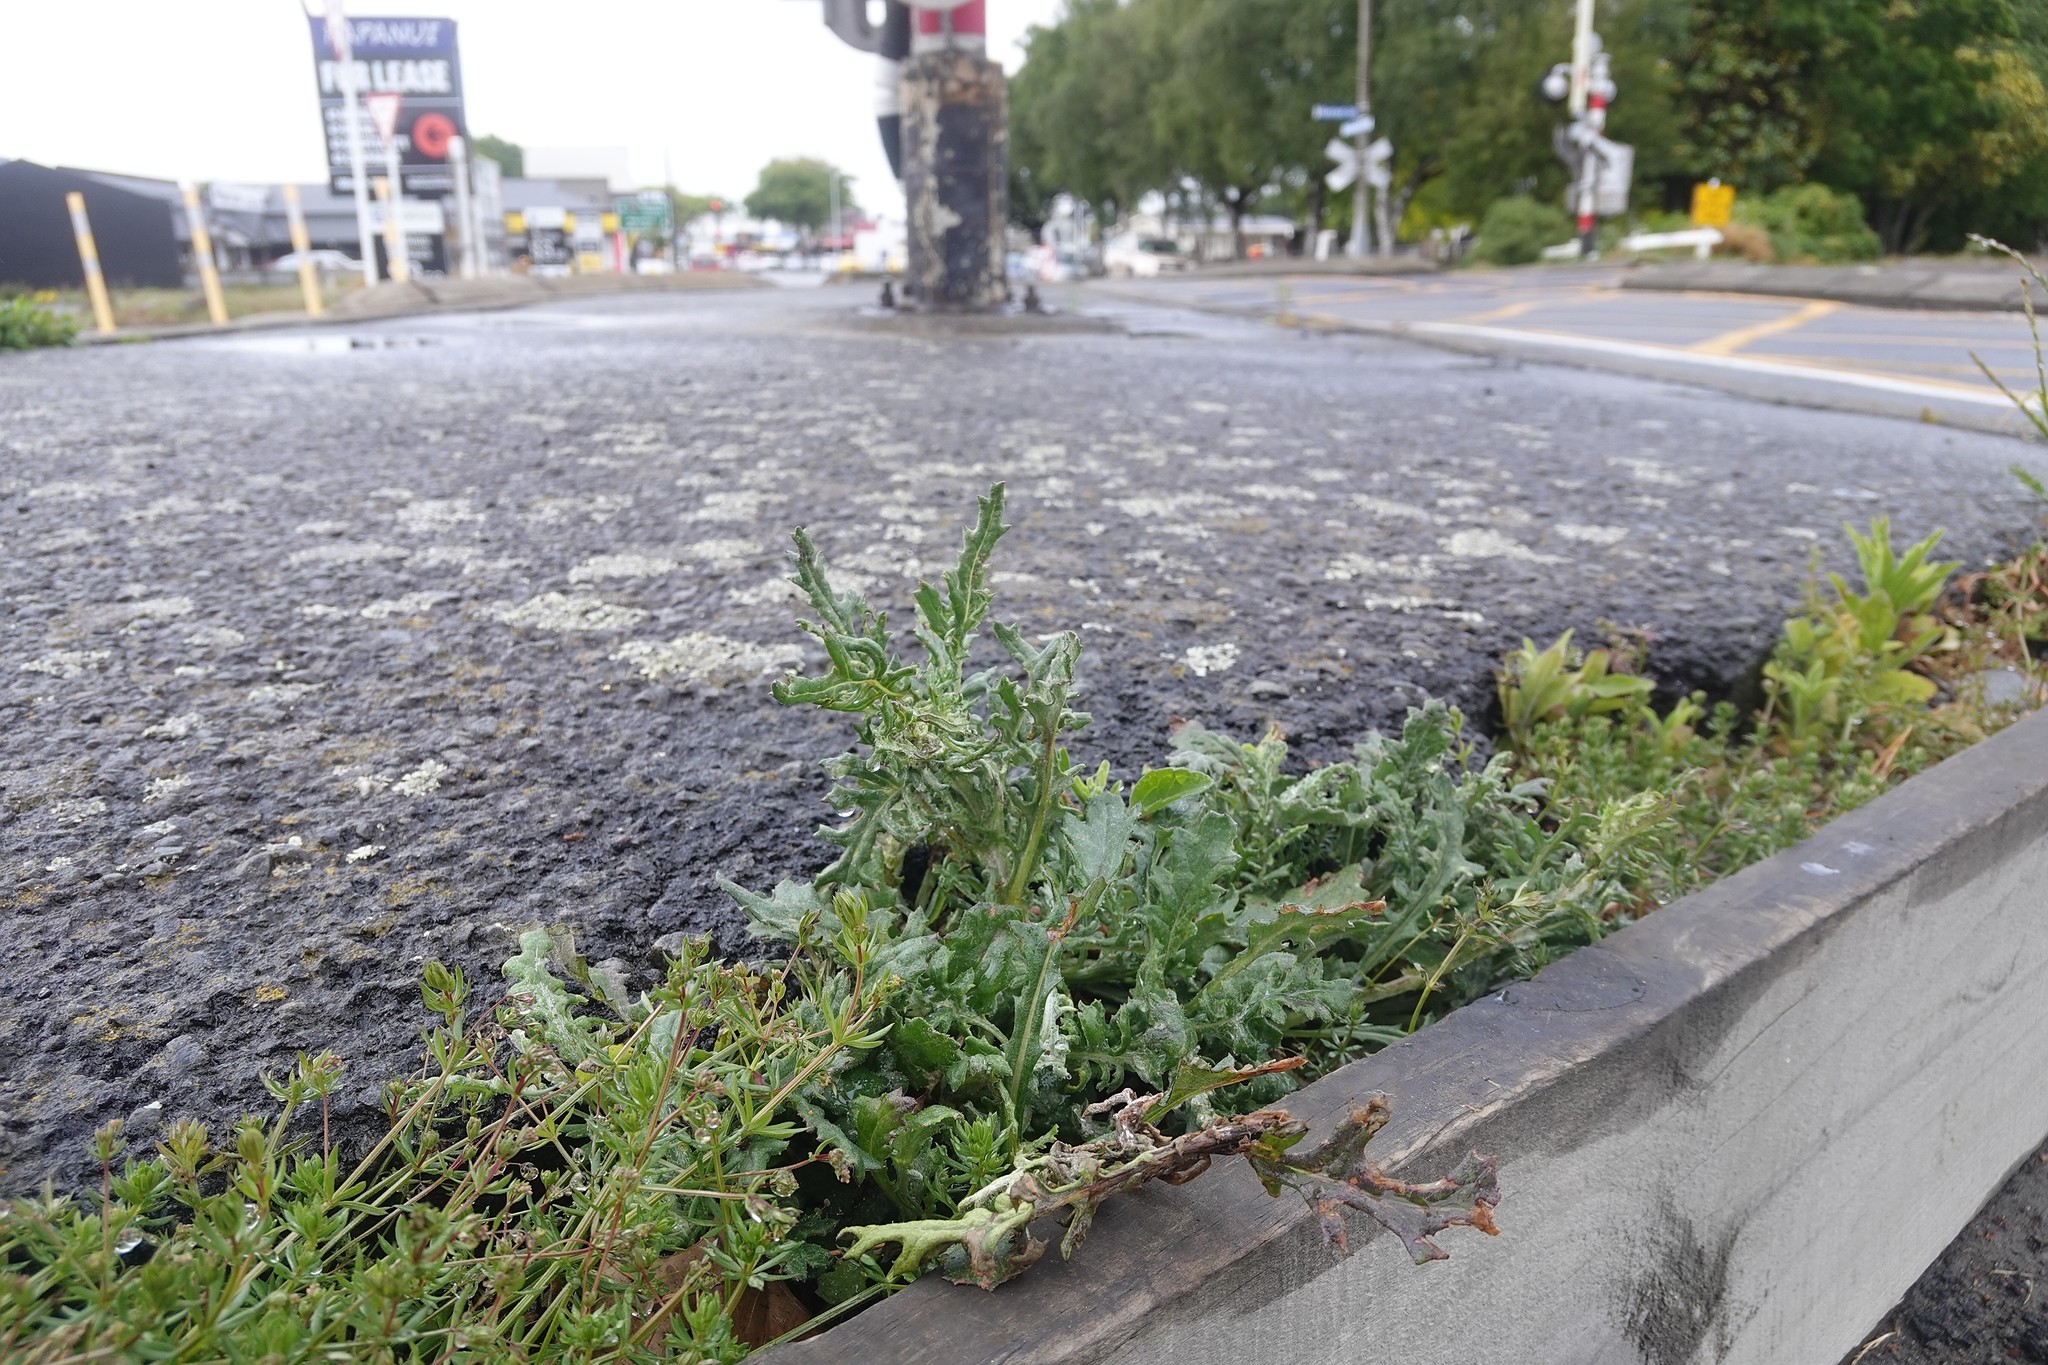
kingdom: Plantae
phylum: Tracheophyta
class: Magnoliopsida
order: Asterales
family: Asteraceae
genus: Senecio
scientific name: Senecio glomeratus
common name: Cutleaf burnweed
